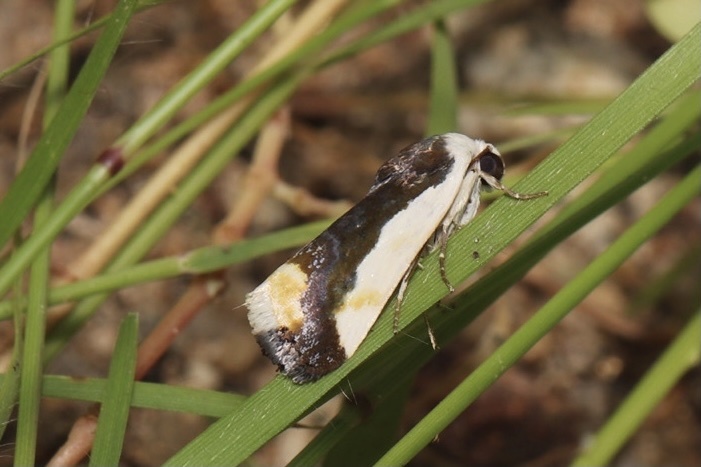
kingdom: Animalia
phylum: Arthropoda
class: Insecta
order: Lepidoptera
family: Noctuidae
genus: Acontia
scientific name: Acontia Tarache expolita
